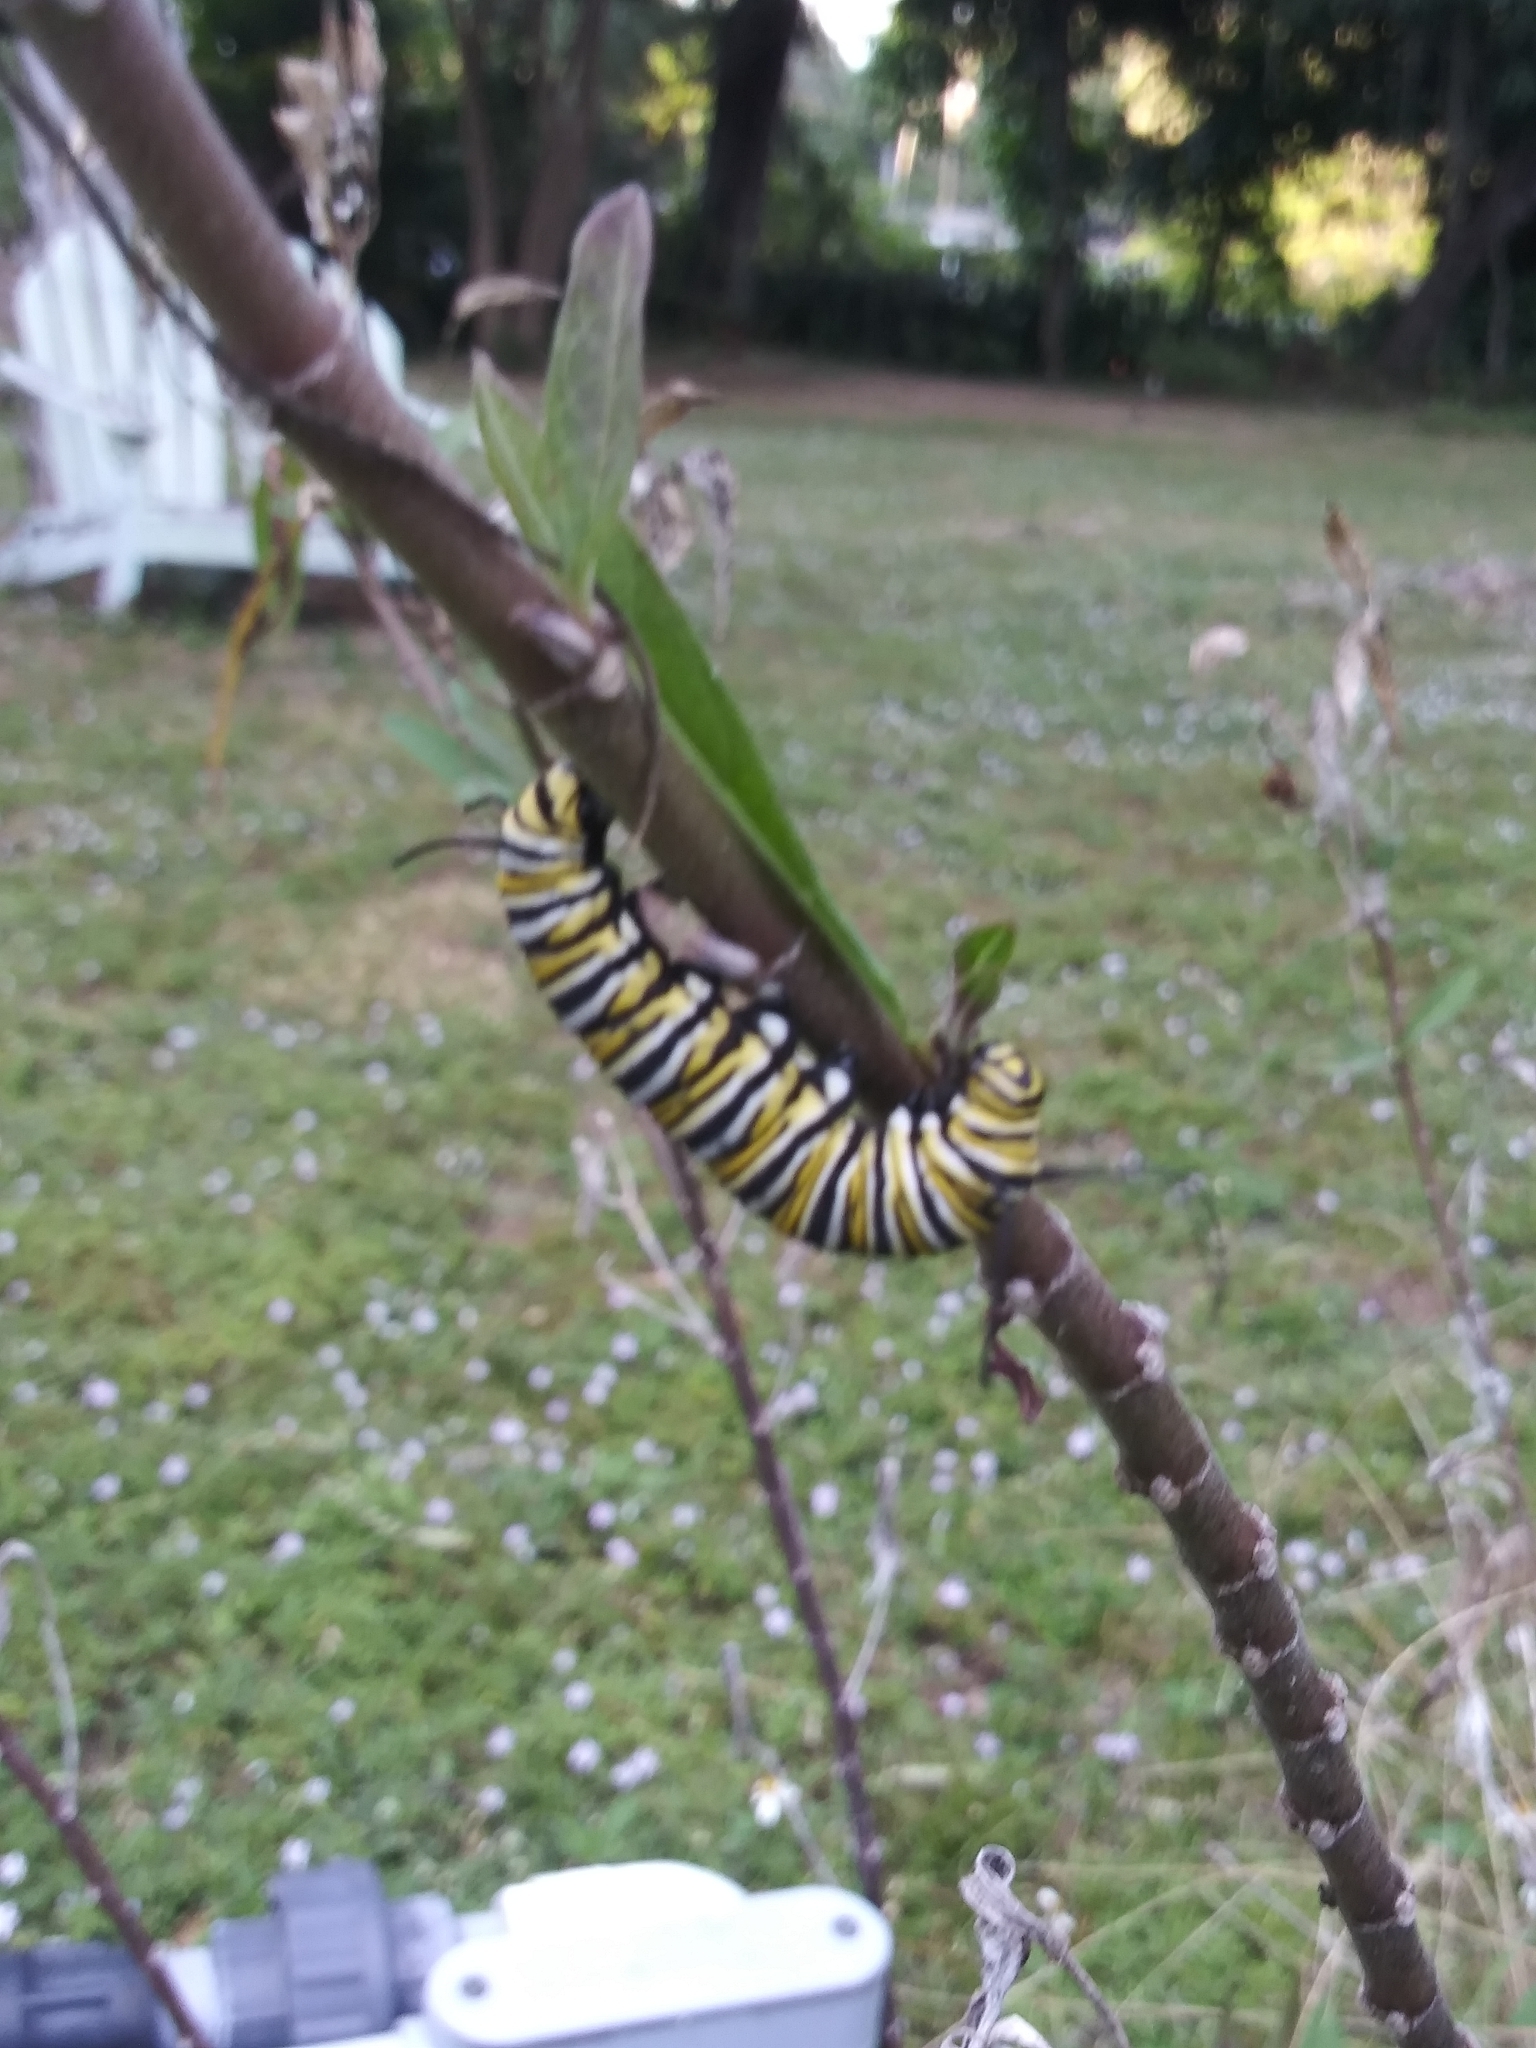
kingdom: Animalia
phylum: Arthropoda
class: Insecta
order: Lepidoptera
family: Nymphalidae
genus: Danaus
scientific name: Danaus plexippus
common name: Monarch
